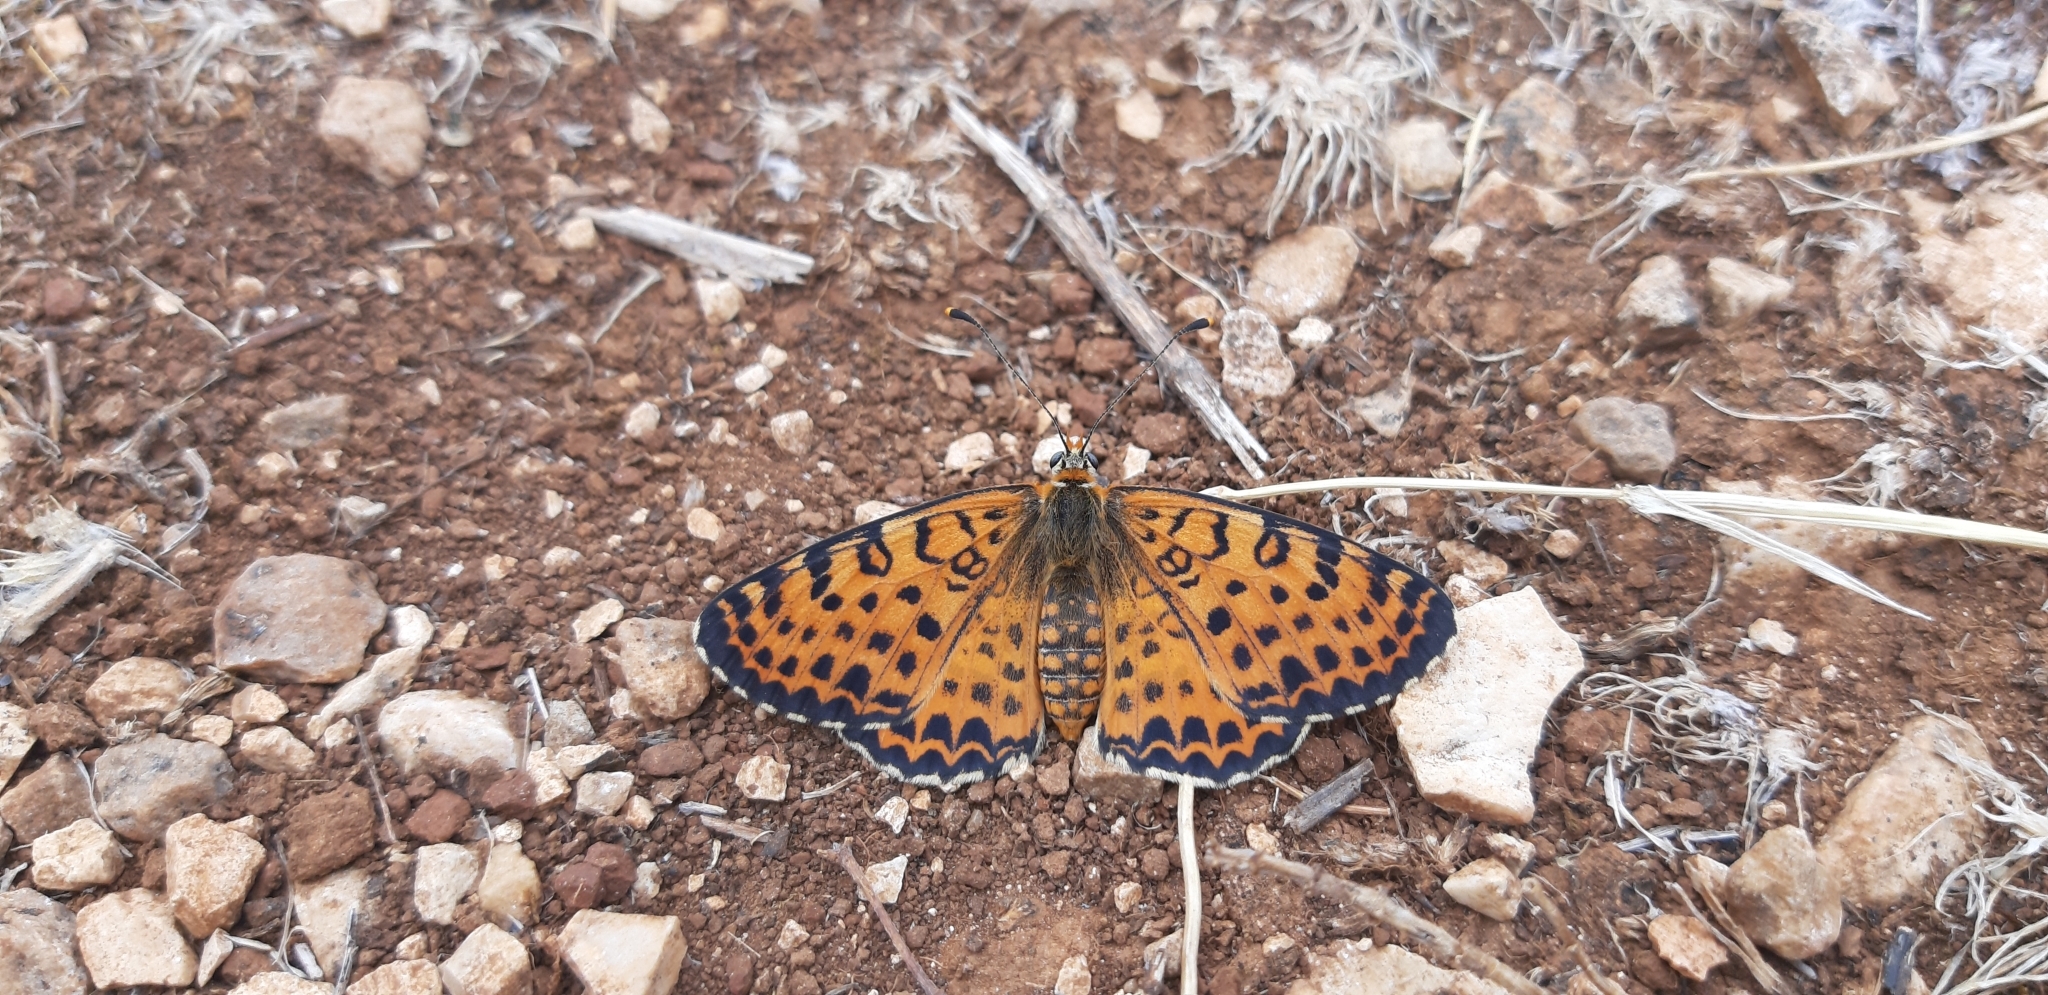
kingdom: Animalia
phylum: Arthropoda
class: Insecta
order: Lepidoptera
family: Nymphalidae
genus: Melitaea
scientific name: Melitaea didyma
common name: Spotted fritillary
